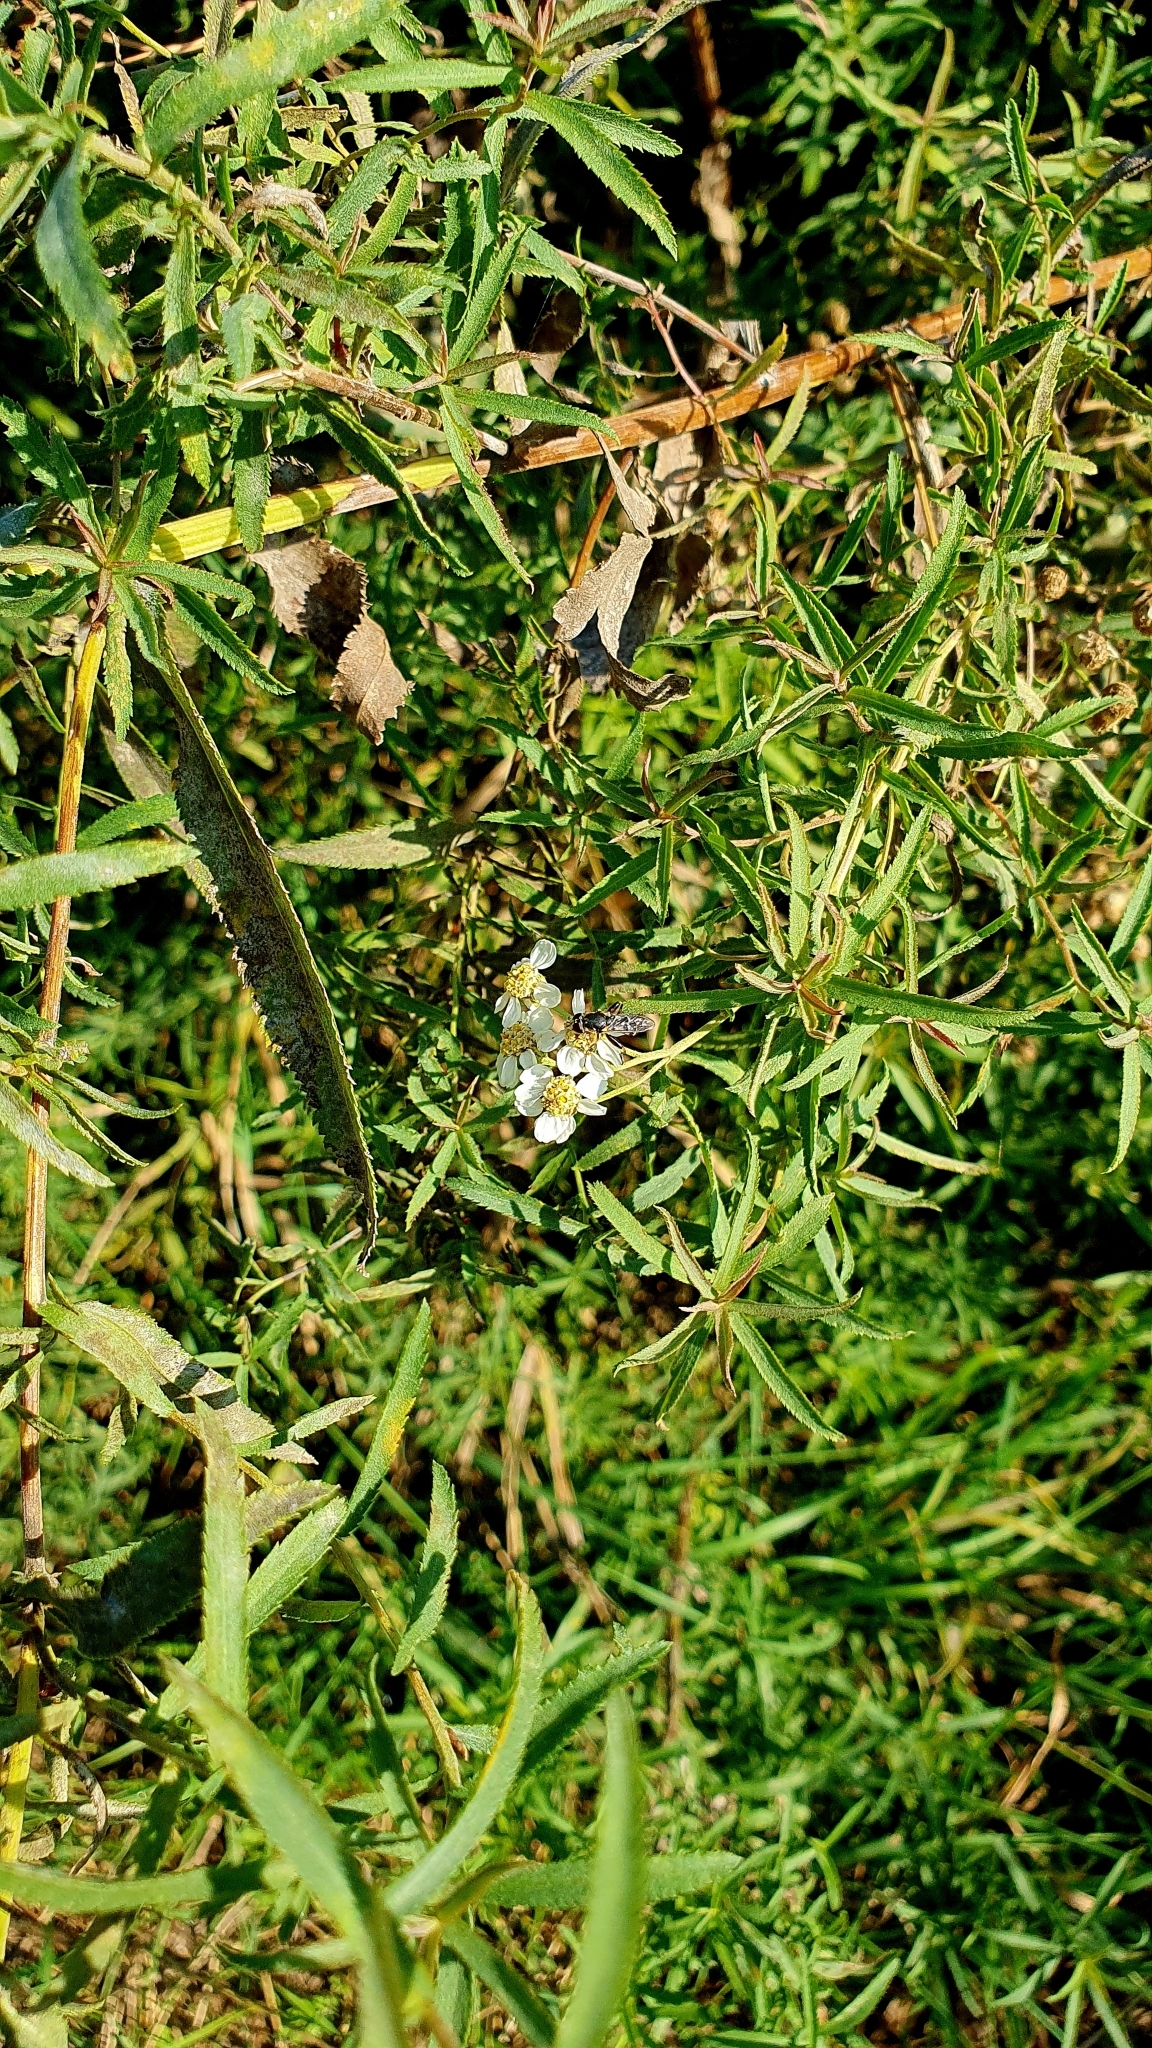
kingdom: Plantae
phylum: Tracheophyta
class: Magnoliopsida
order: Asterales
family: Asteraceae
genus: Achillea
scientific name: Achillea salicifolia
